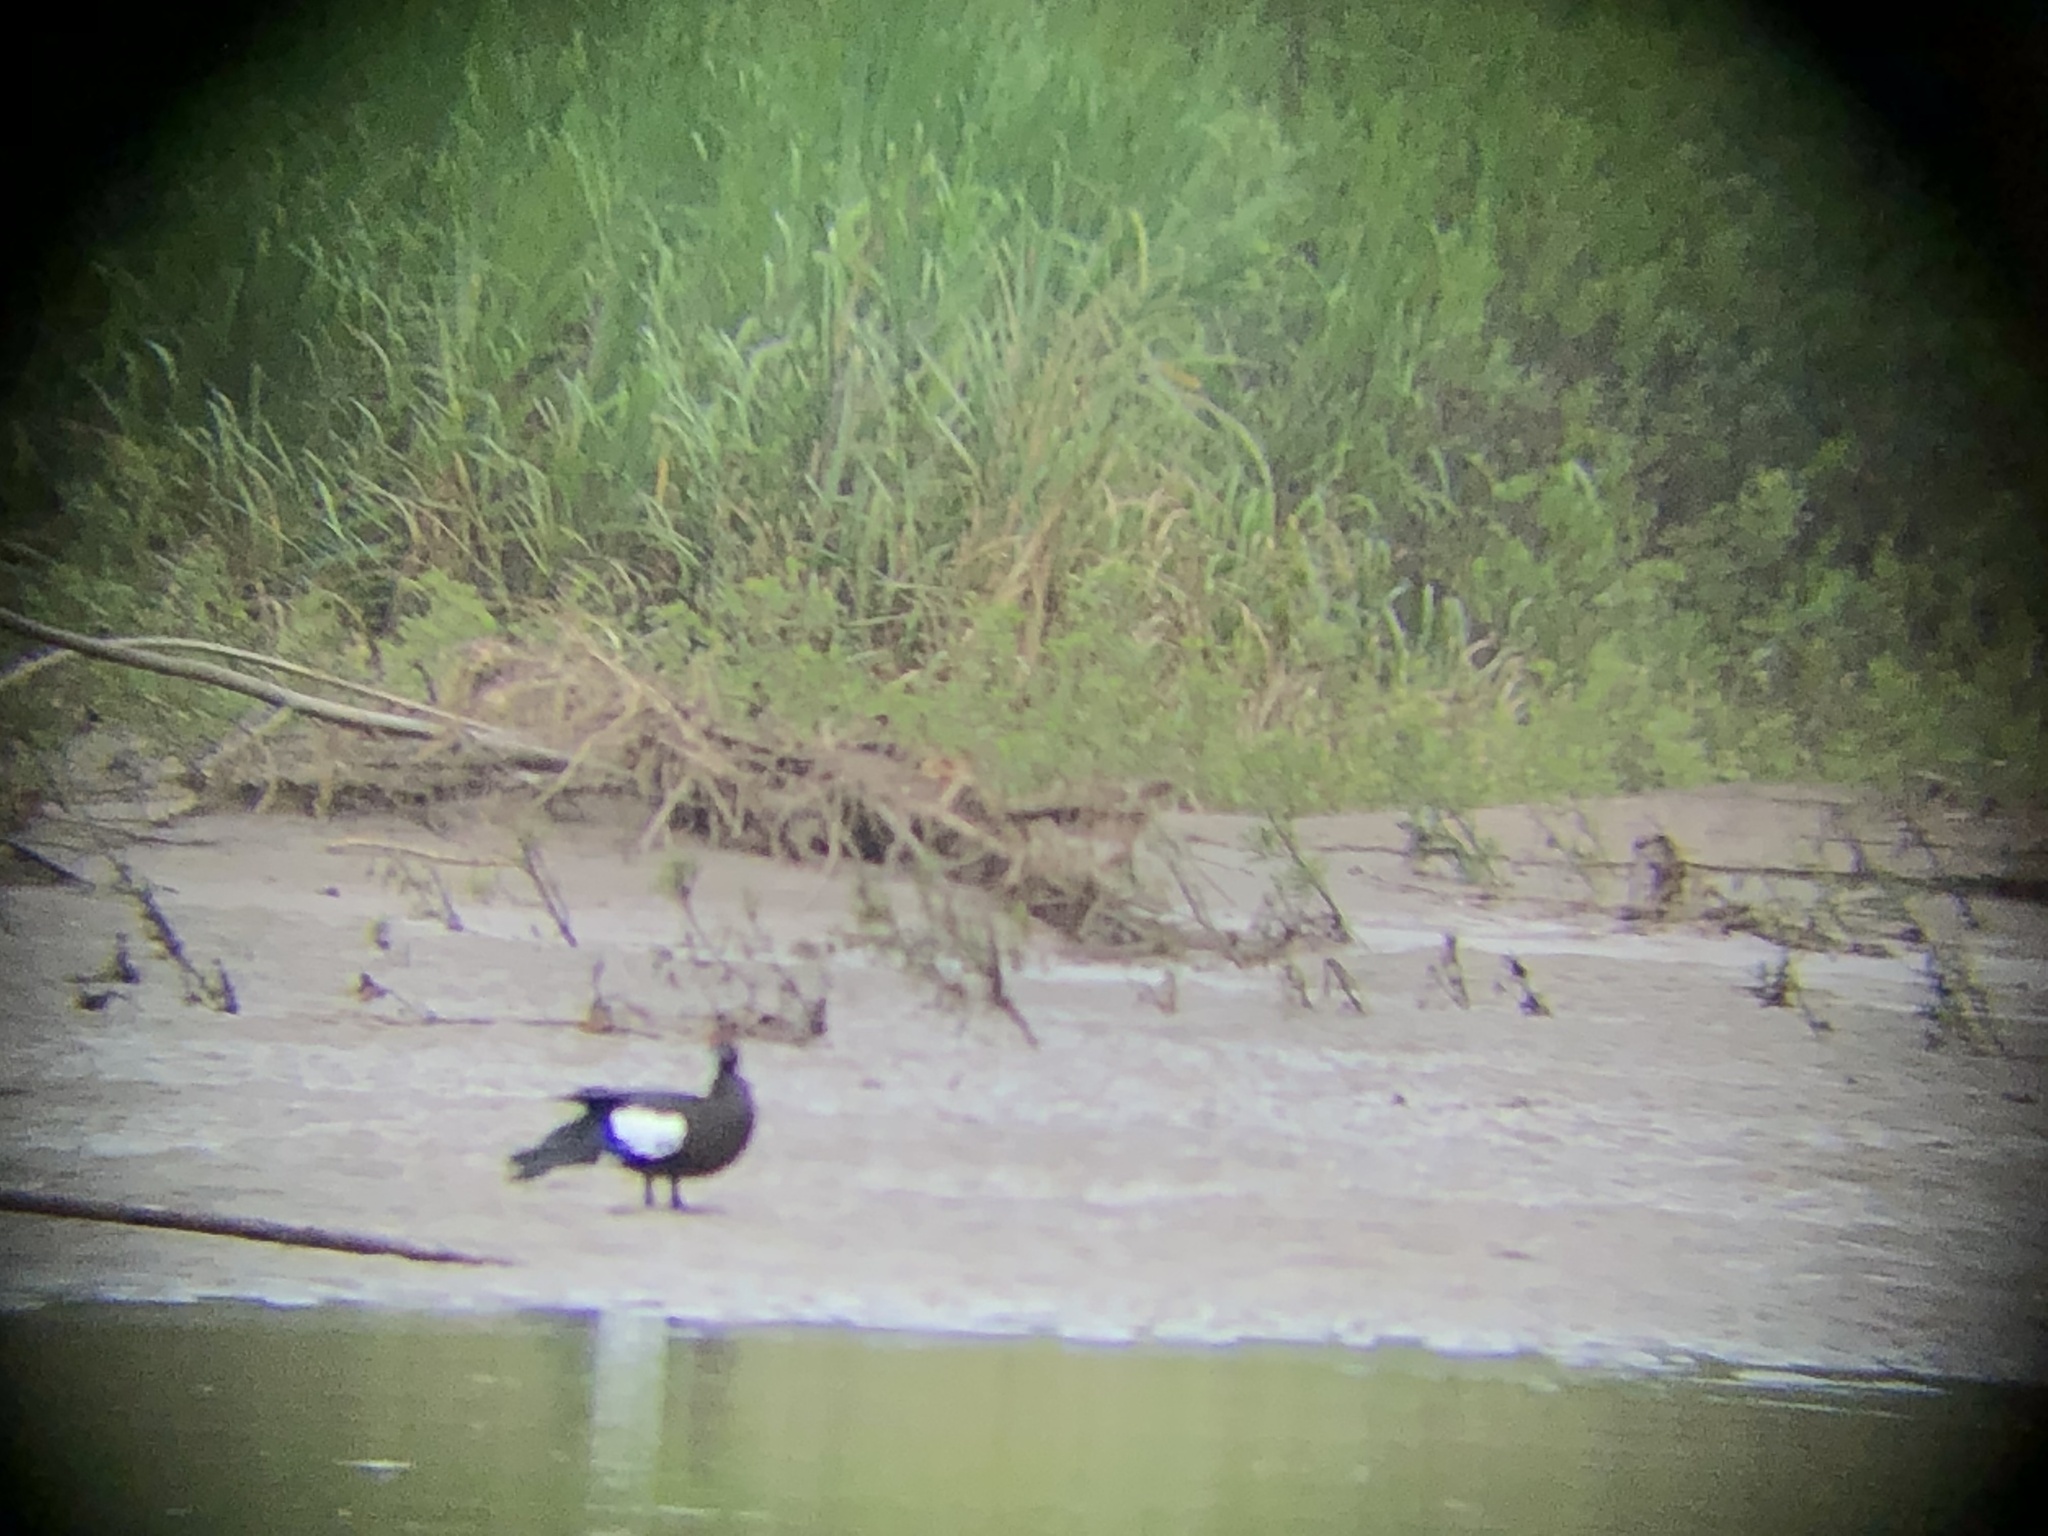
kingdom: Animalia
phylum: Chordata
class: Aves
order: Anseriformes
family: Anatidae
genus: Cairina
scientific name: Cairina moschata
